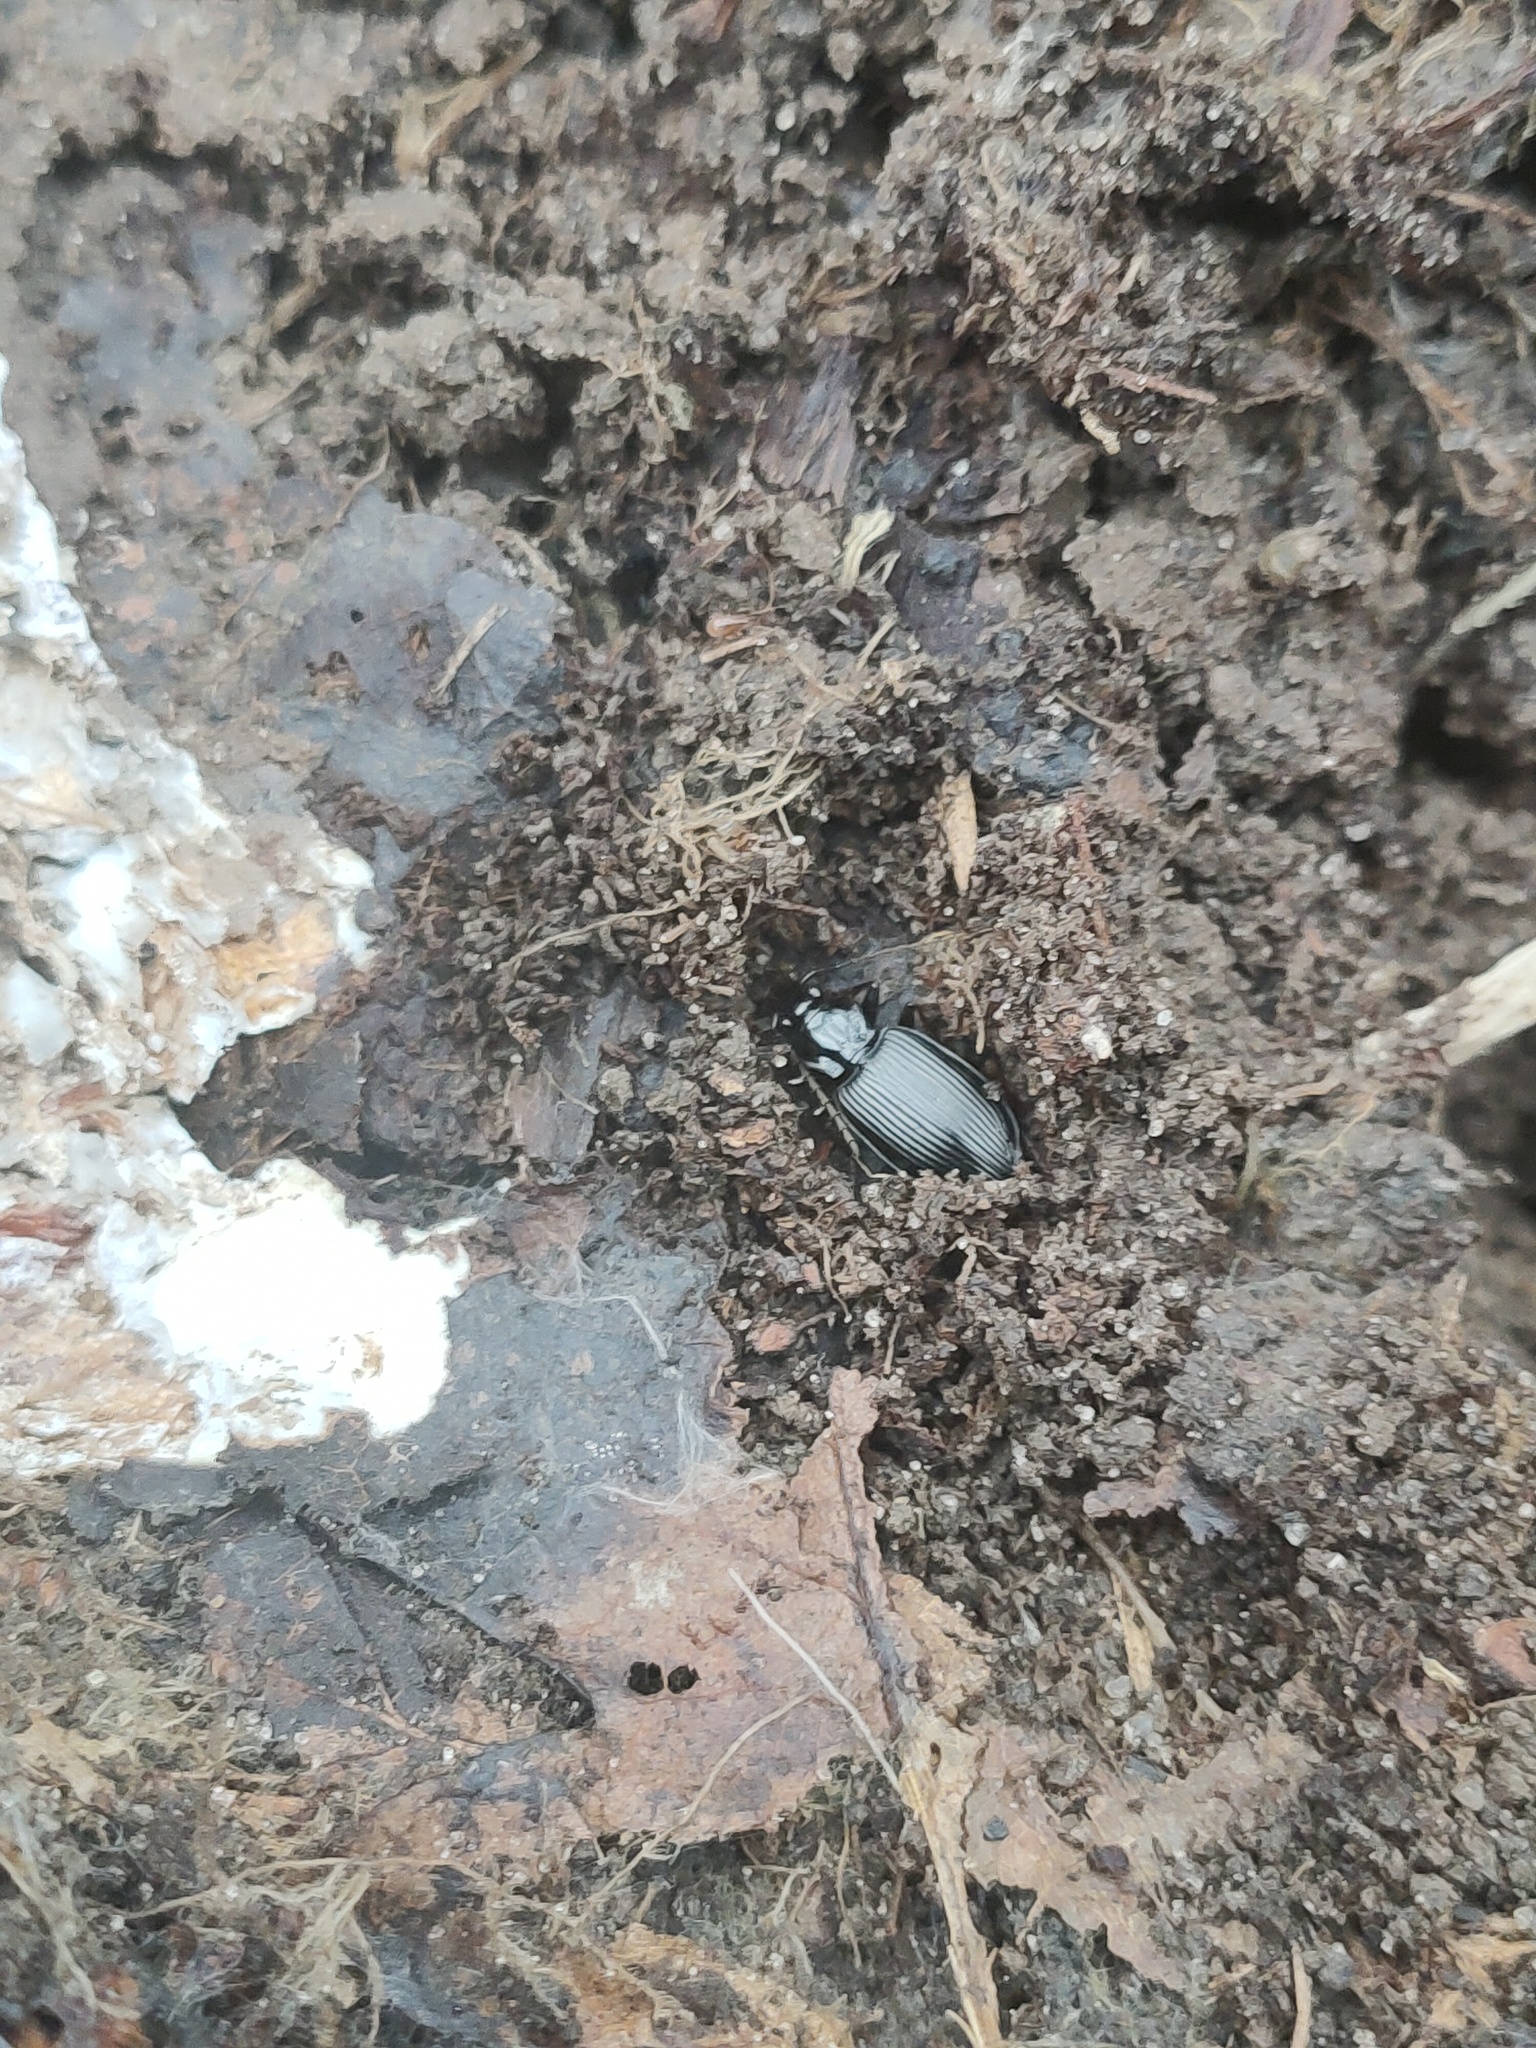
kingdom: Animalia
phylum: Arthropoda
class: Insecta
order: Coleoptera
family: Carabidae
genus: Platynus
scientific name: Platynus assimilis
